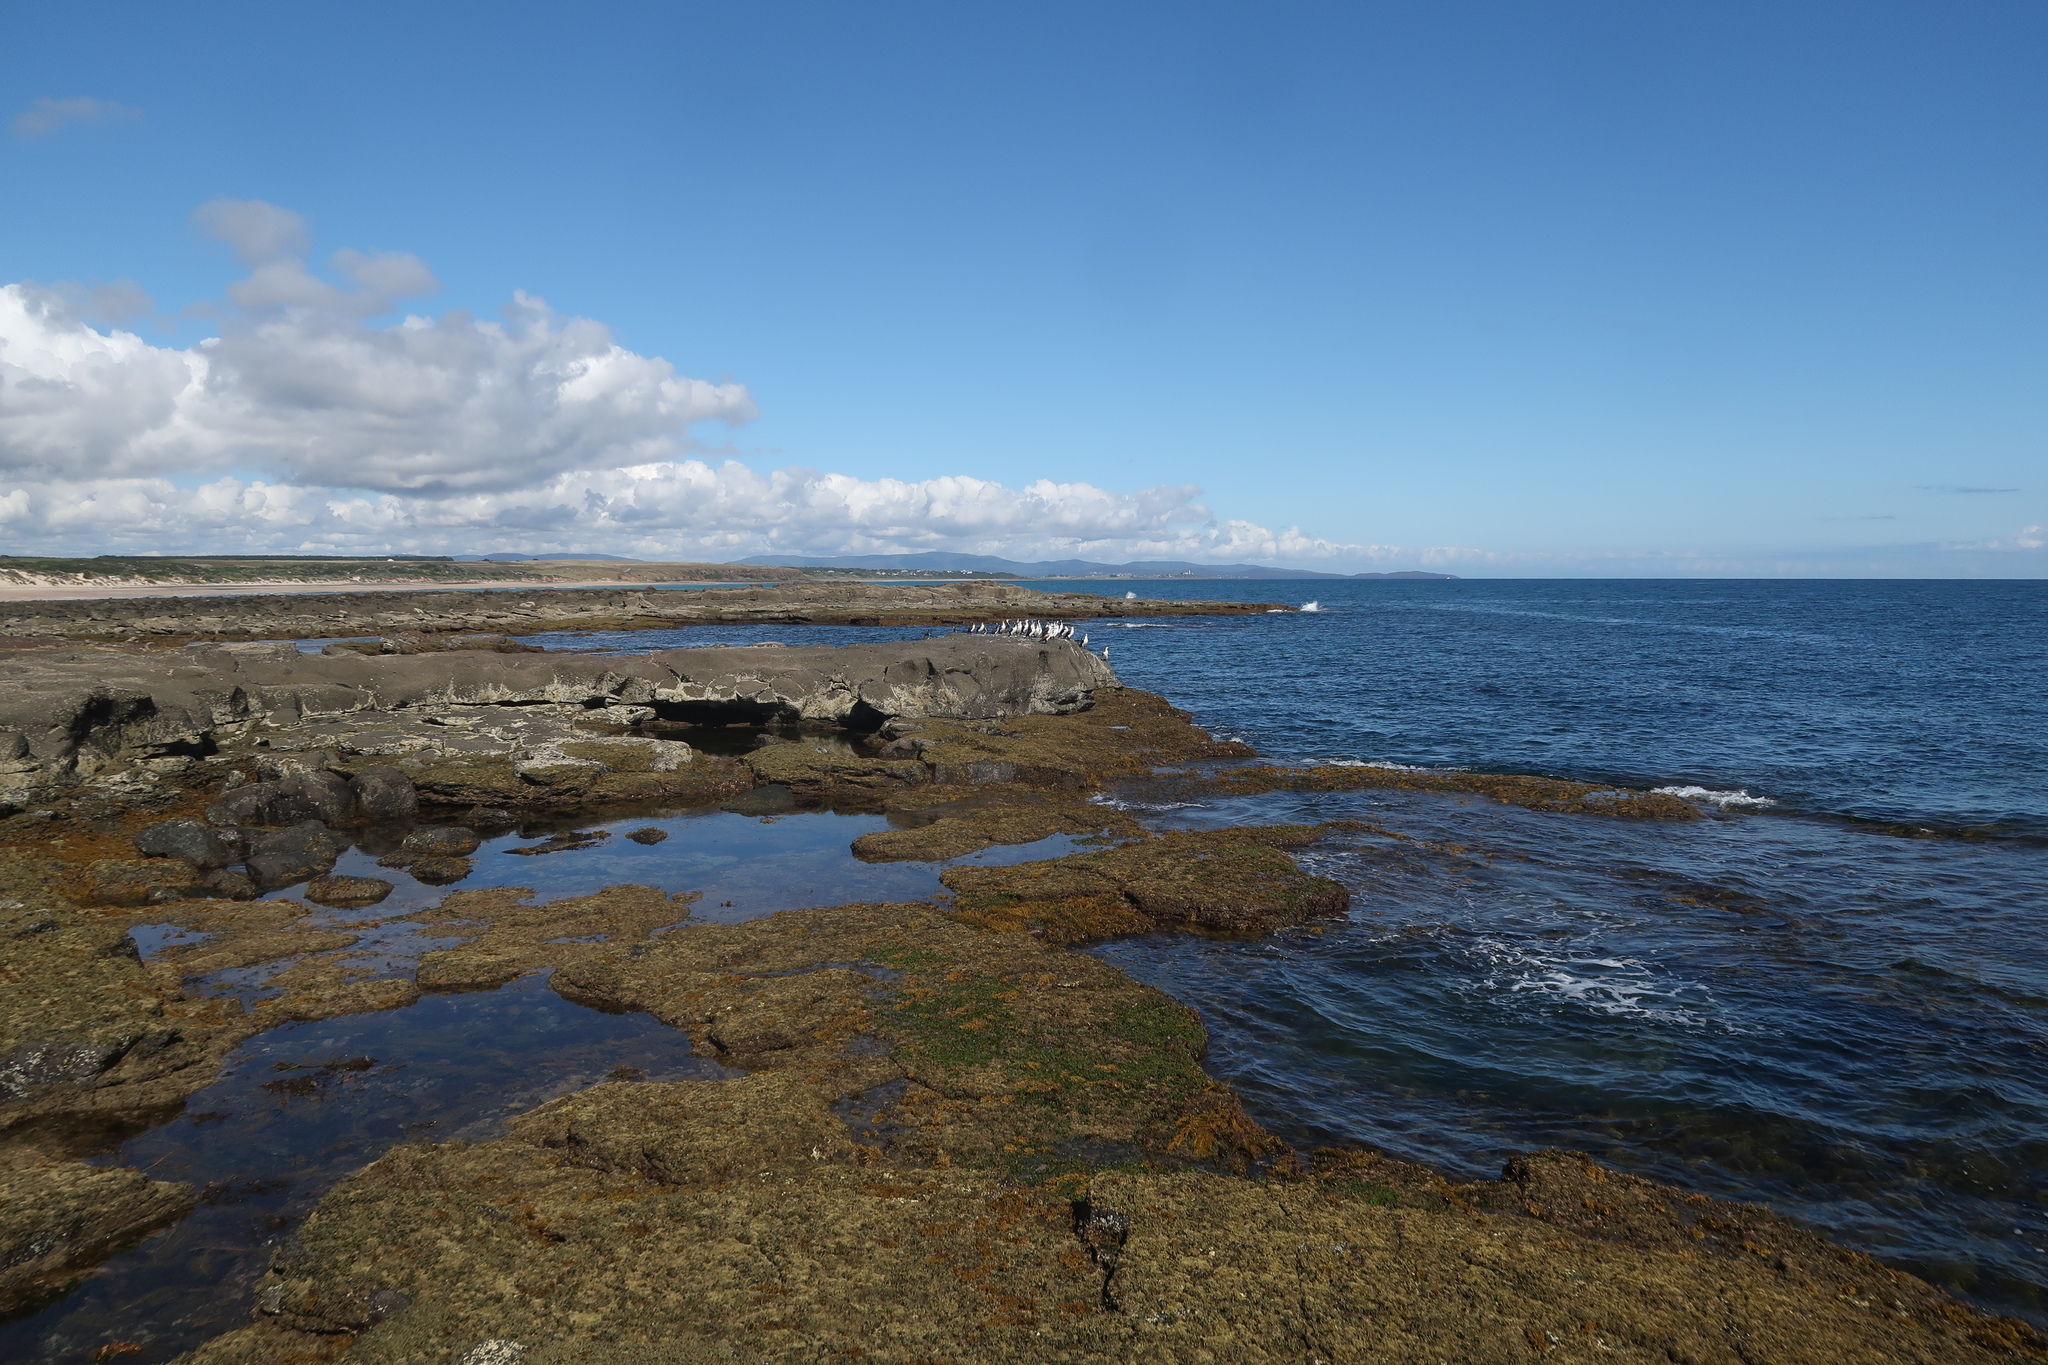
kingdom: Animalia
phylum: Chordata
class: Aves
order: Suliformes
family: Phalacrocoracidae
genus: Phalacrocorax
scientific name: Phalacrocorax fuscescens
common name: Black-faced cormorant
